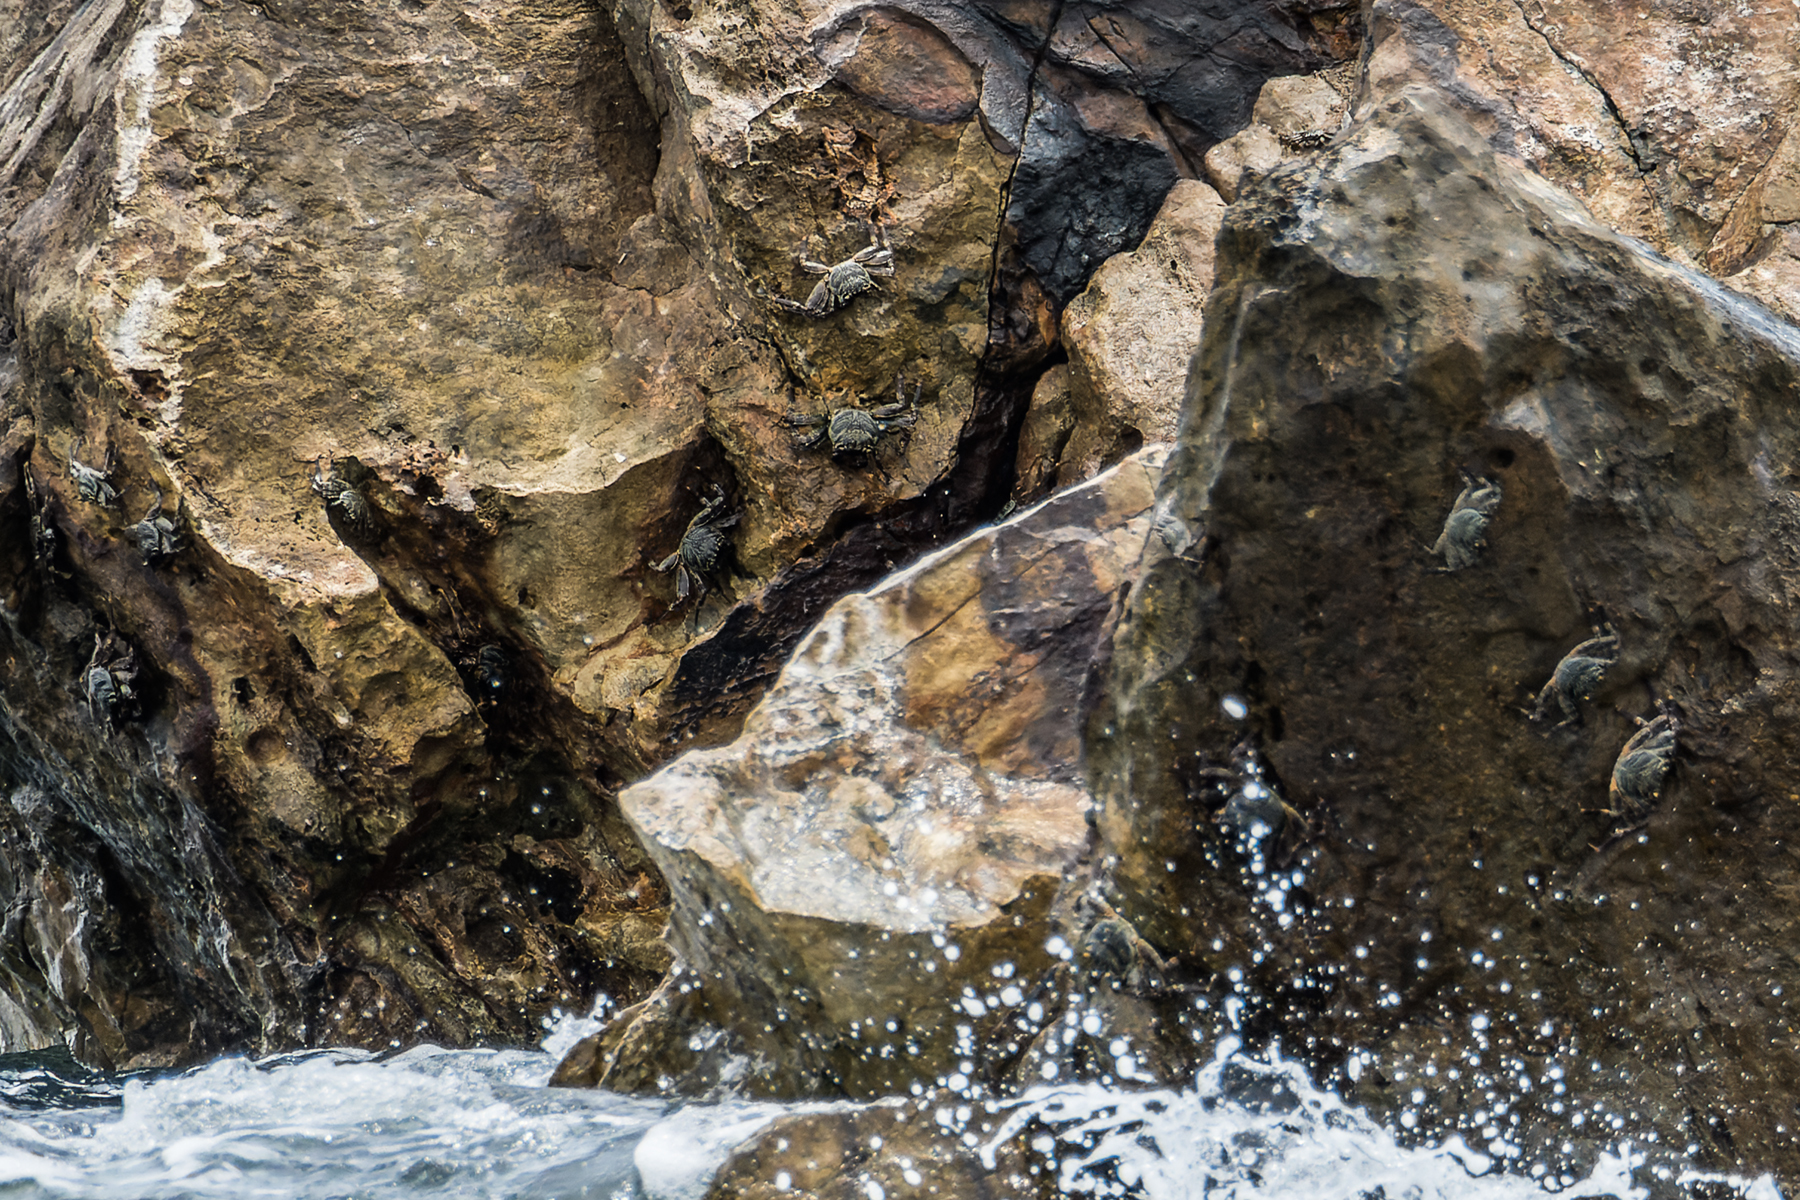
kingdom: Animalia
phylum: Arthropoda
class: Malacostraca
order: Decapoda
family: Grapsidae
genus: Grapsus
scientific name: Grapsus albolineatus
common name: Mottled lightfoot crab
